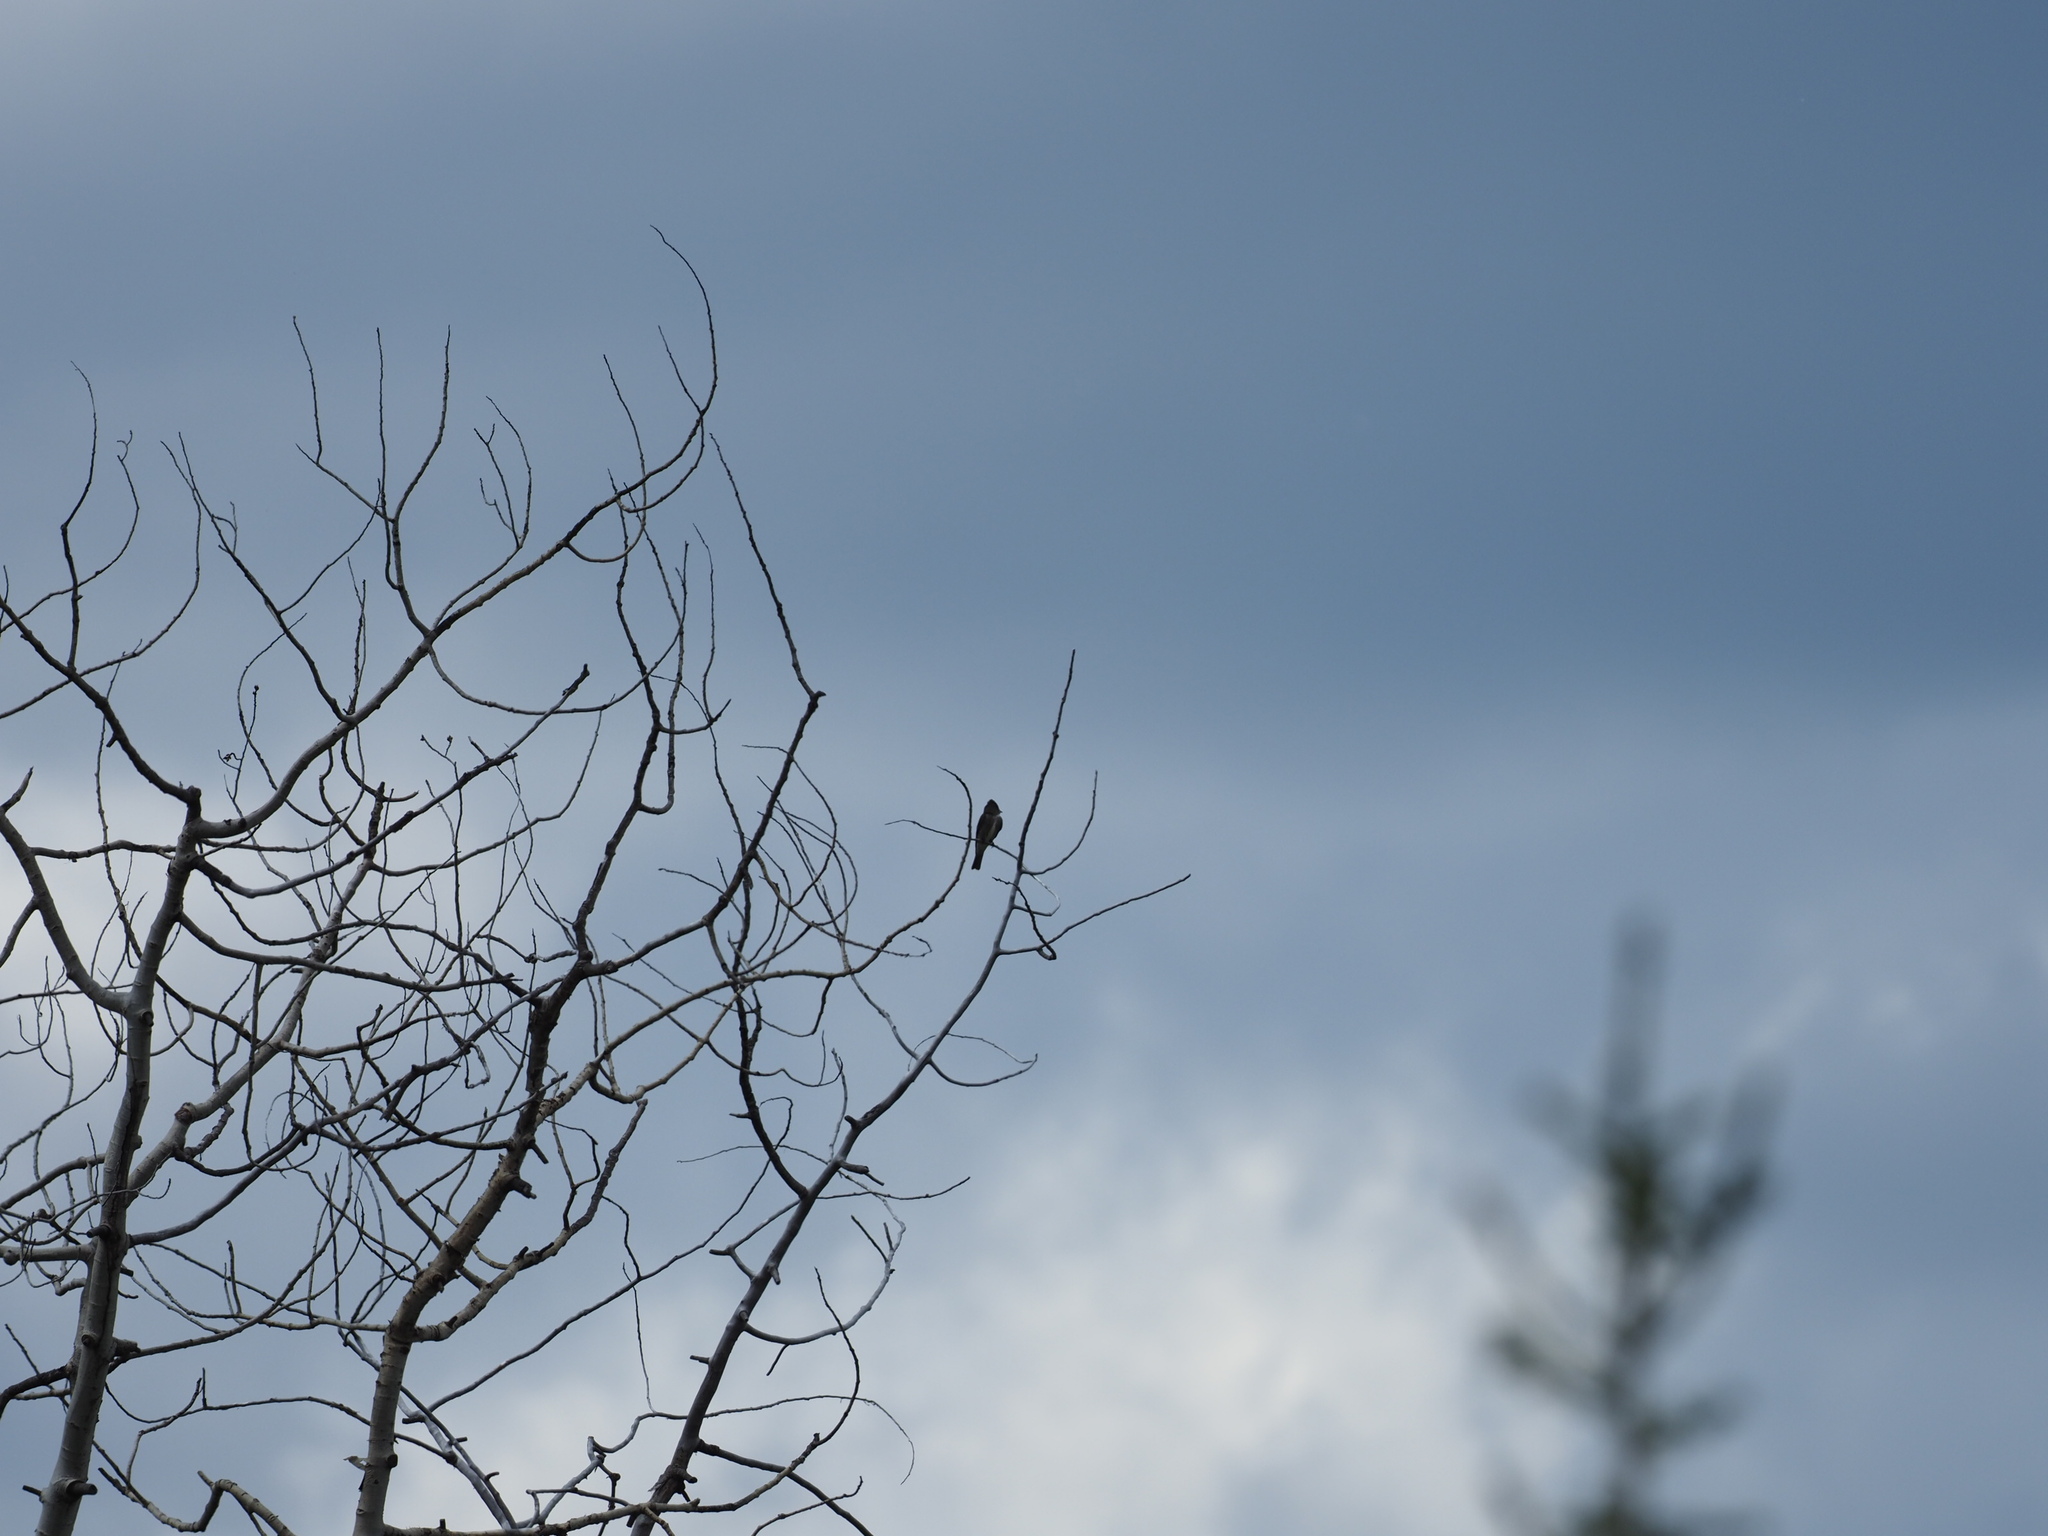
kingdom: Animalia
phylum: Chordata
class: Aves
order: Passeriformes
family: Tyrannidae
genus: Contopus
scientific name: Contopus cooperi
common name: Olive-sided flycatcher
